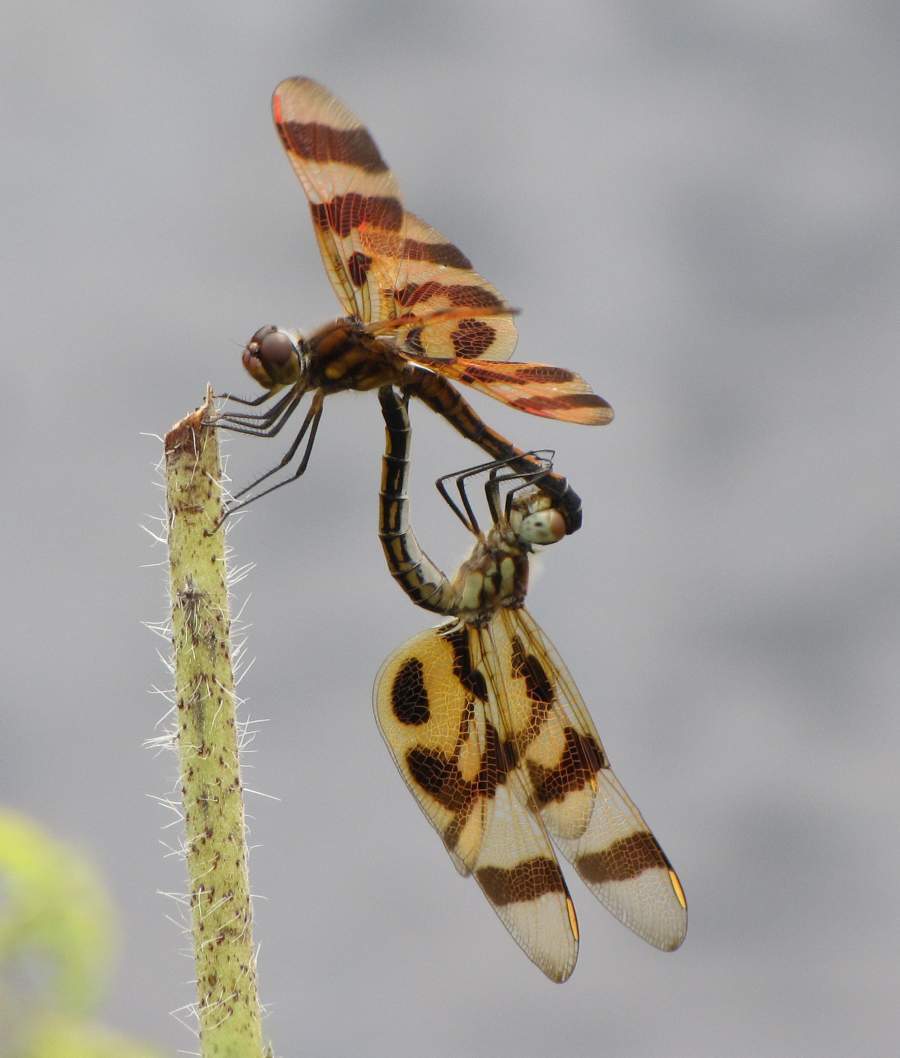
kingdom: Animalia
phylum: Arthropoda
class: Insecta
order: Odonata
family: Libellulidae
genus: Celithemis
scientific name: Celithemis eponina
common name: Halloween pennant
